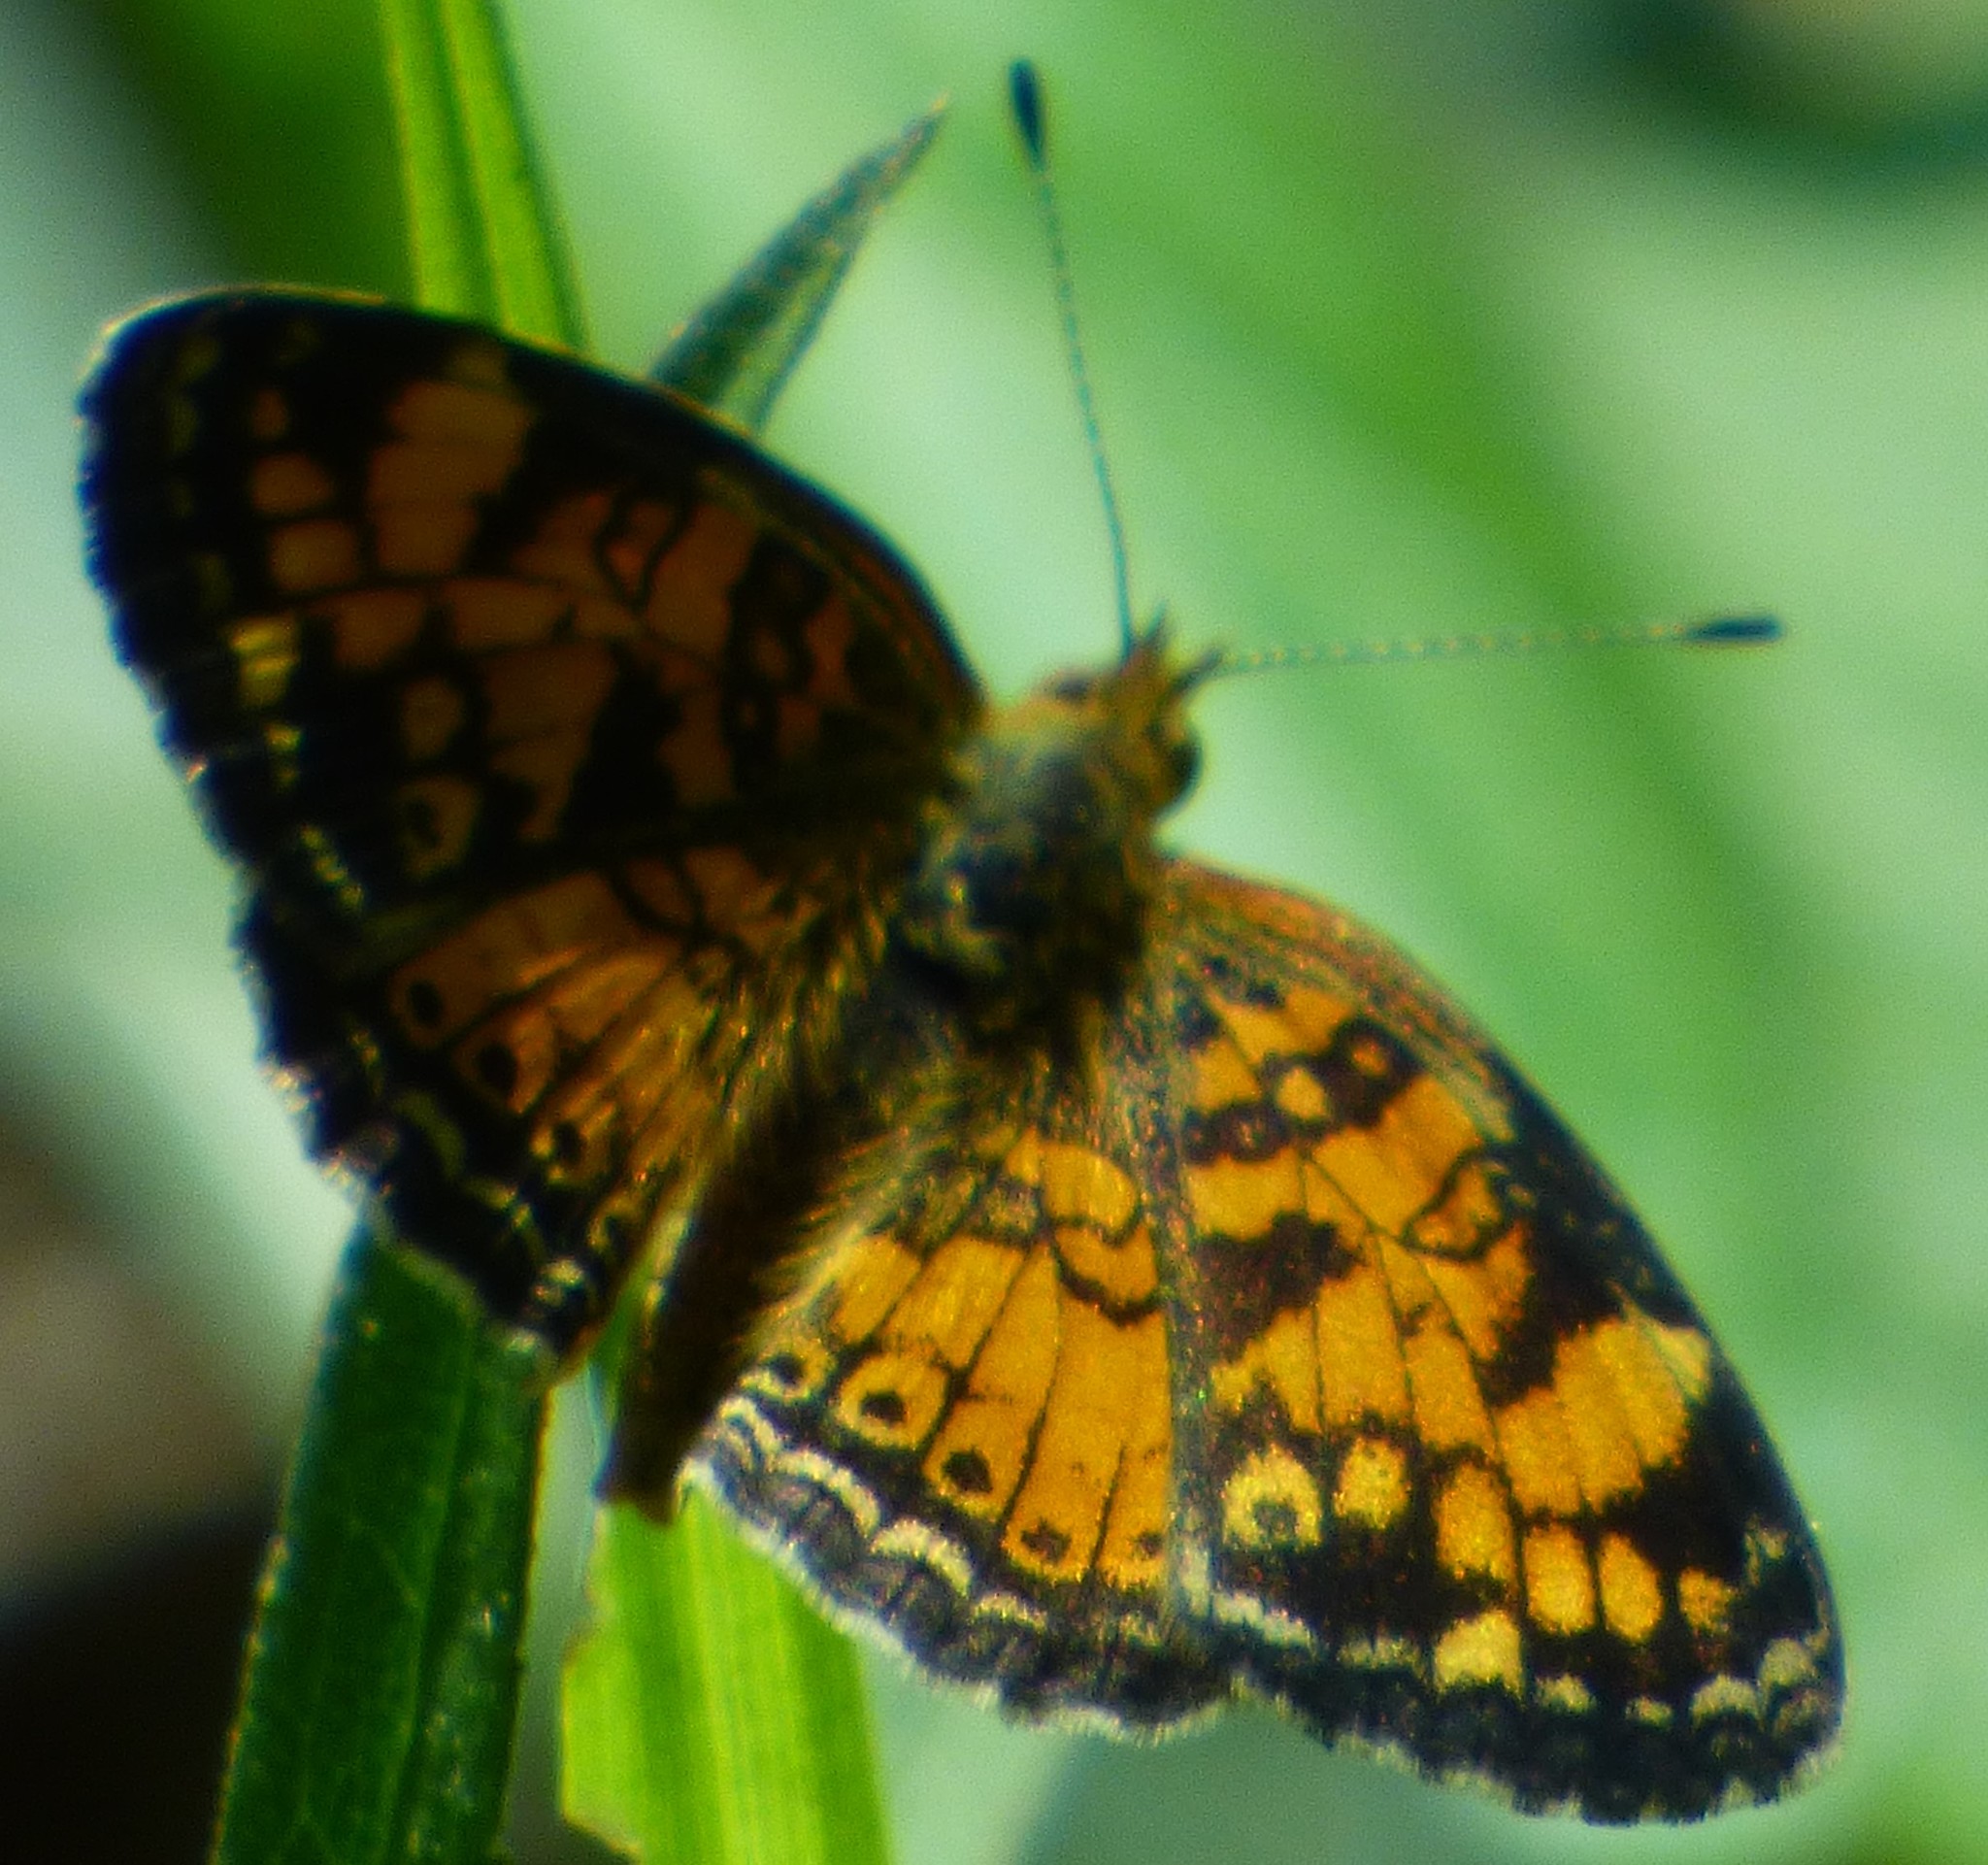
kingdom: Animalia
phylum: Arthropoda
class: Insecta
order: Lepidoptera
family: Nymphalidae
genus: Phyciodes
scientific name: Phyciodes tharos
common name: Pearl crescent
